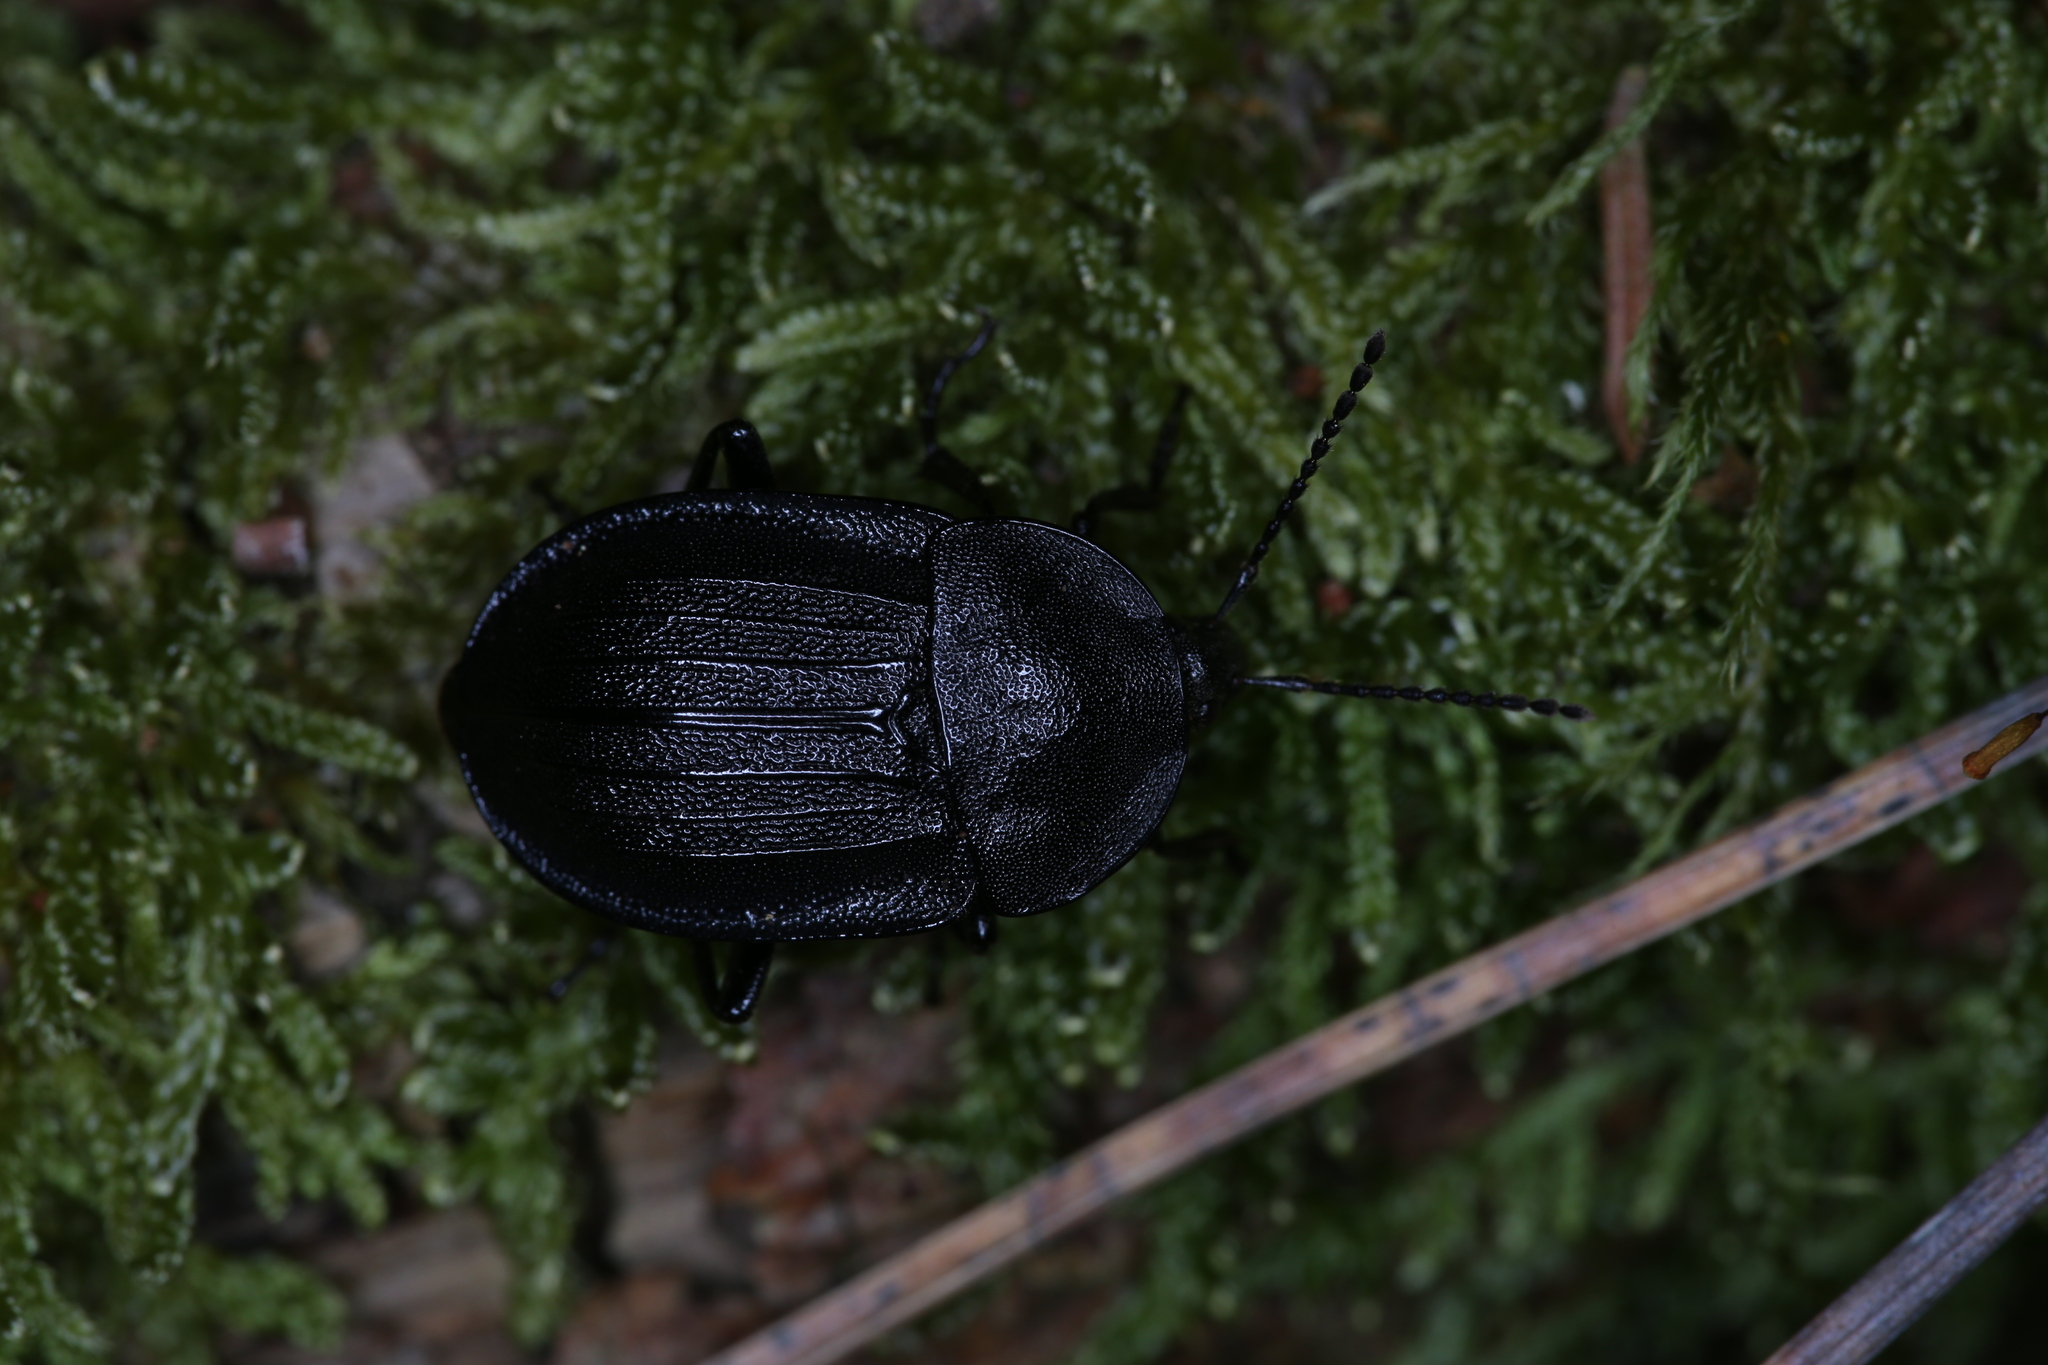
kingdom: Animalia
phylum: Arthropoda
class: Insecta
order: Coleoptera
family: Staphylinidae
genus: Silpha
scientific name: Silpha atrata
